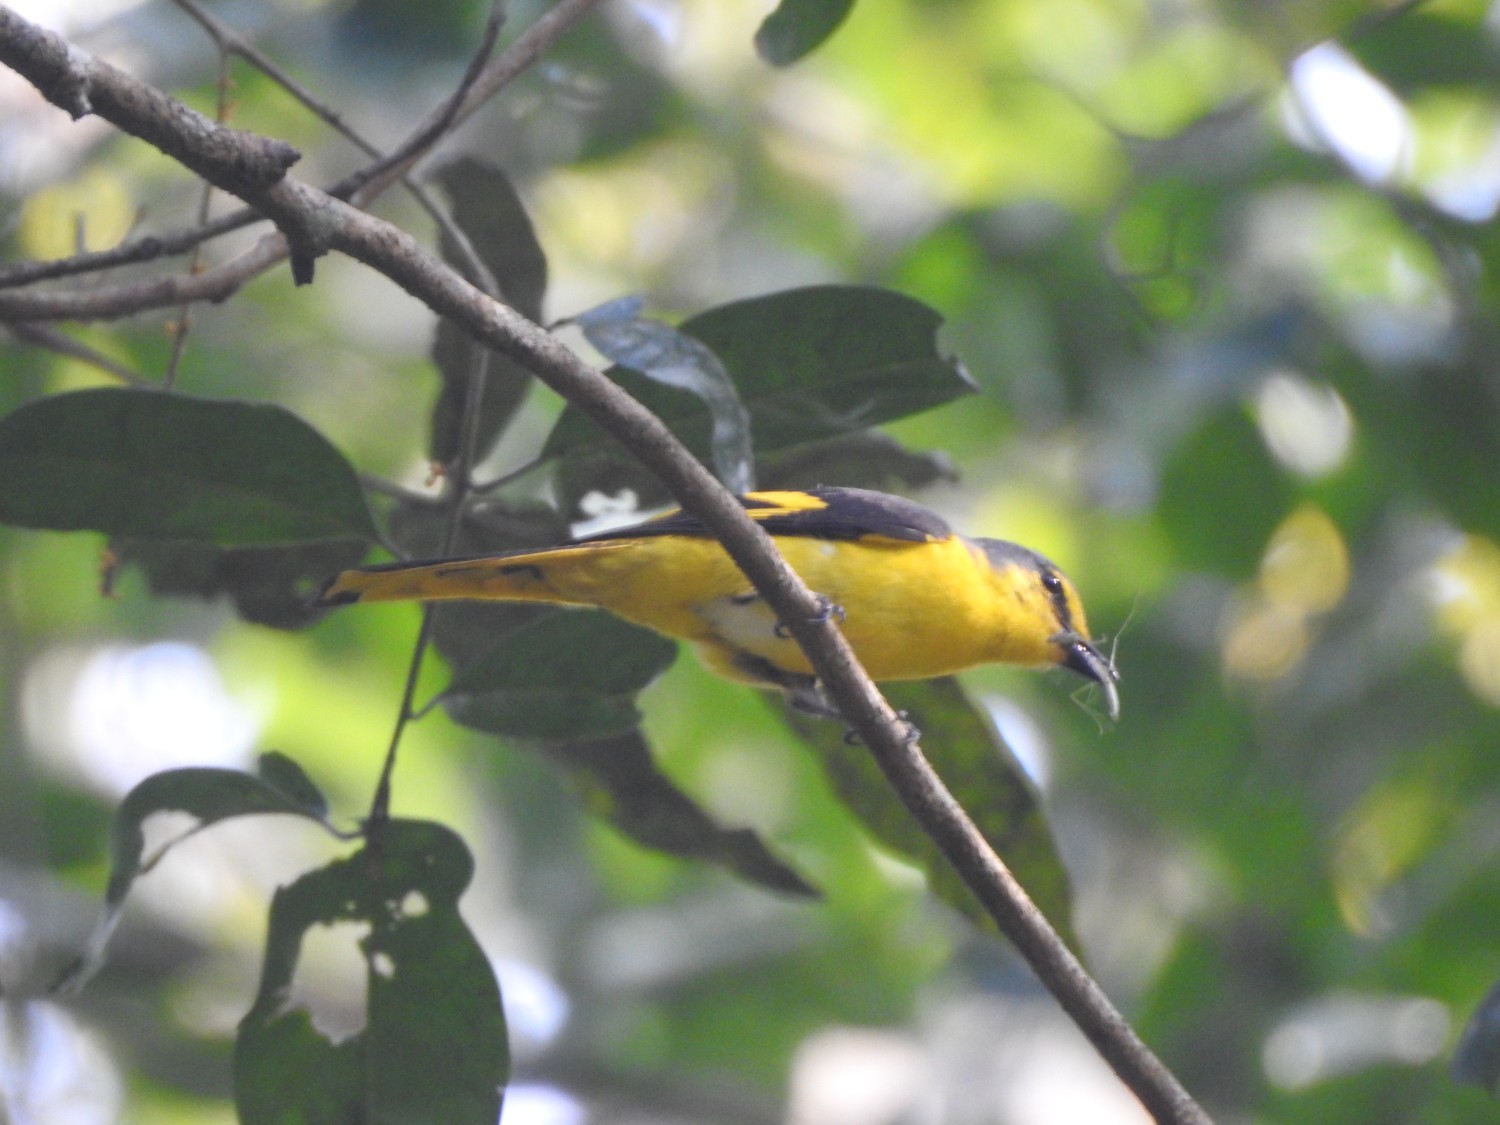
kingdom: Animalia
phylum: Chordata
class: Aves
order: Passeriformes
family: Campephagidae
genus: Pericrocotus
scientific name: Pericrocotus flammeus
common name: Orange minivet
